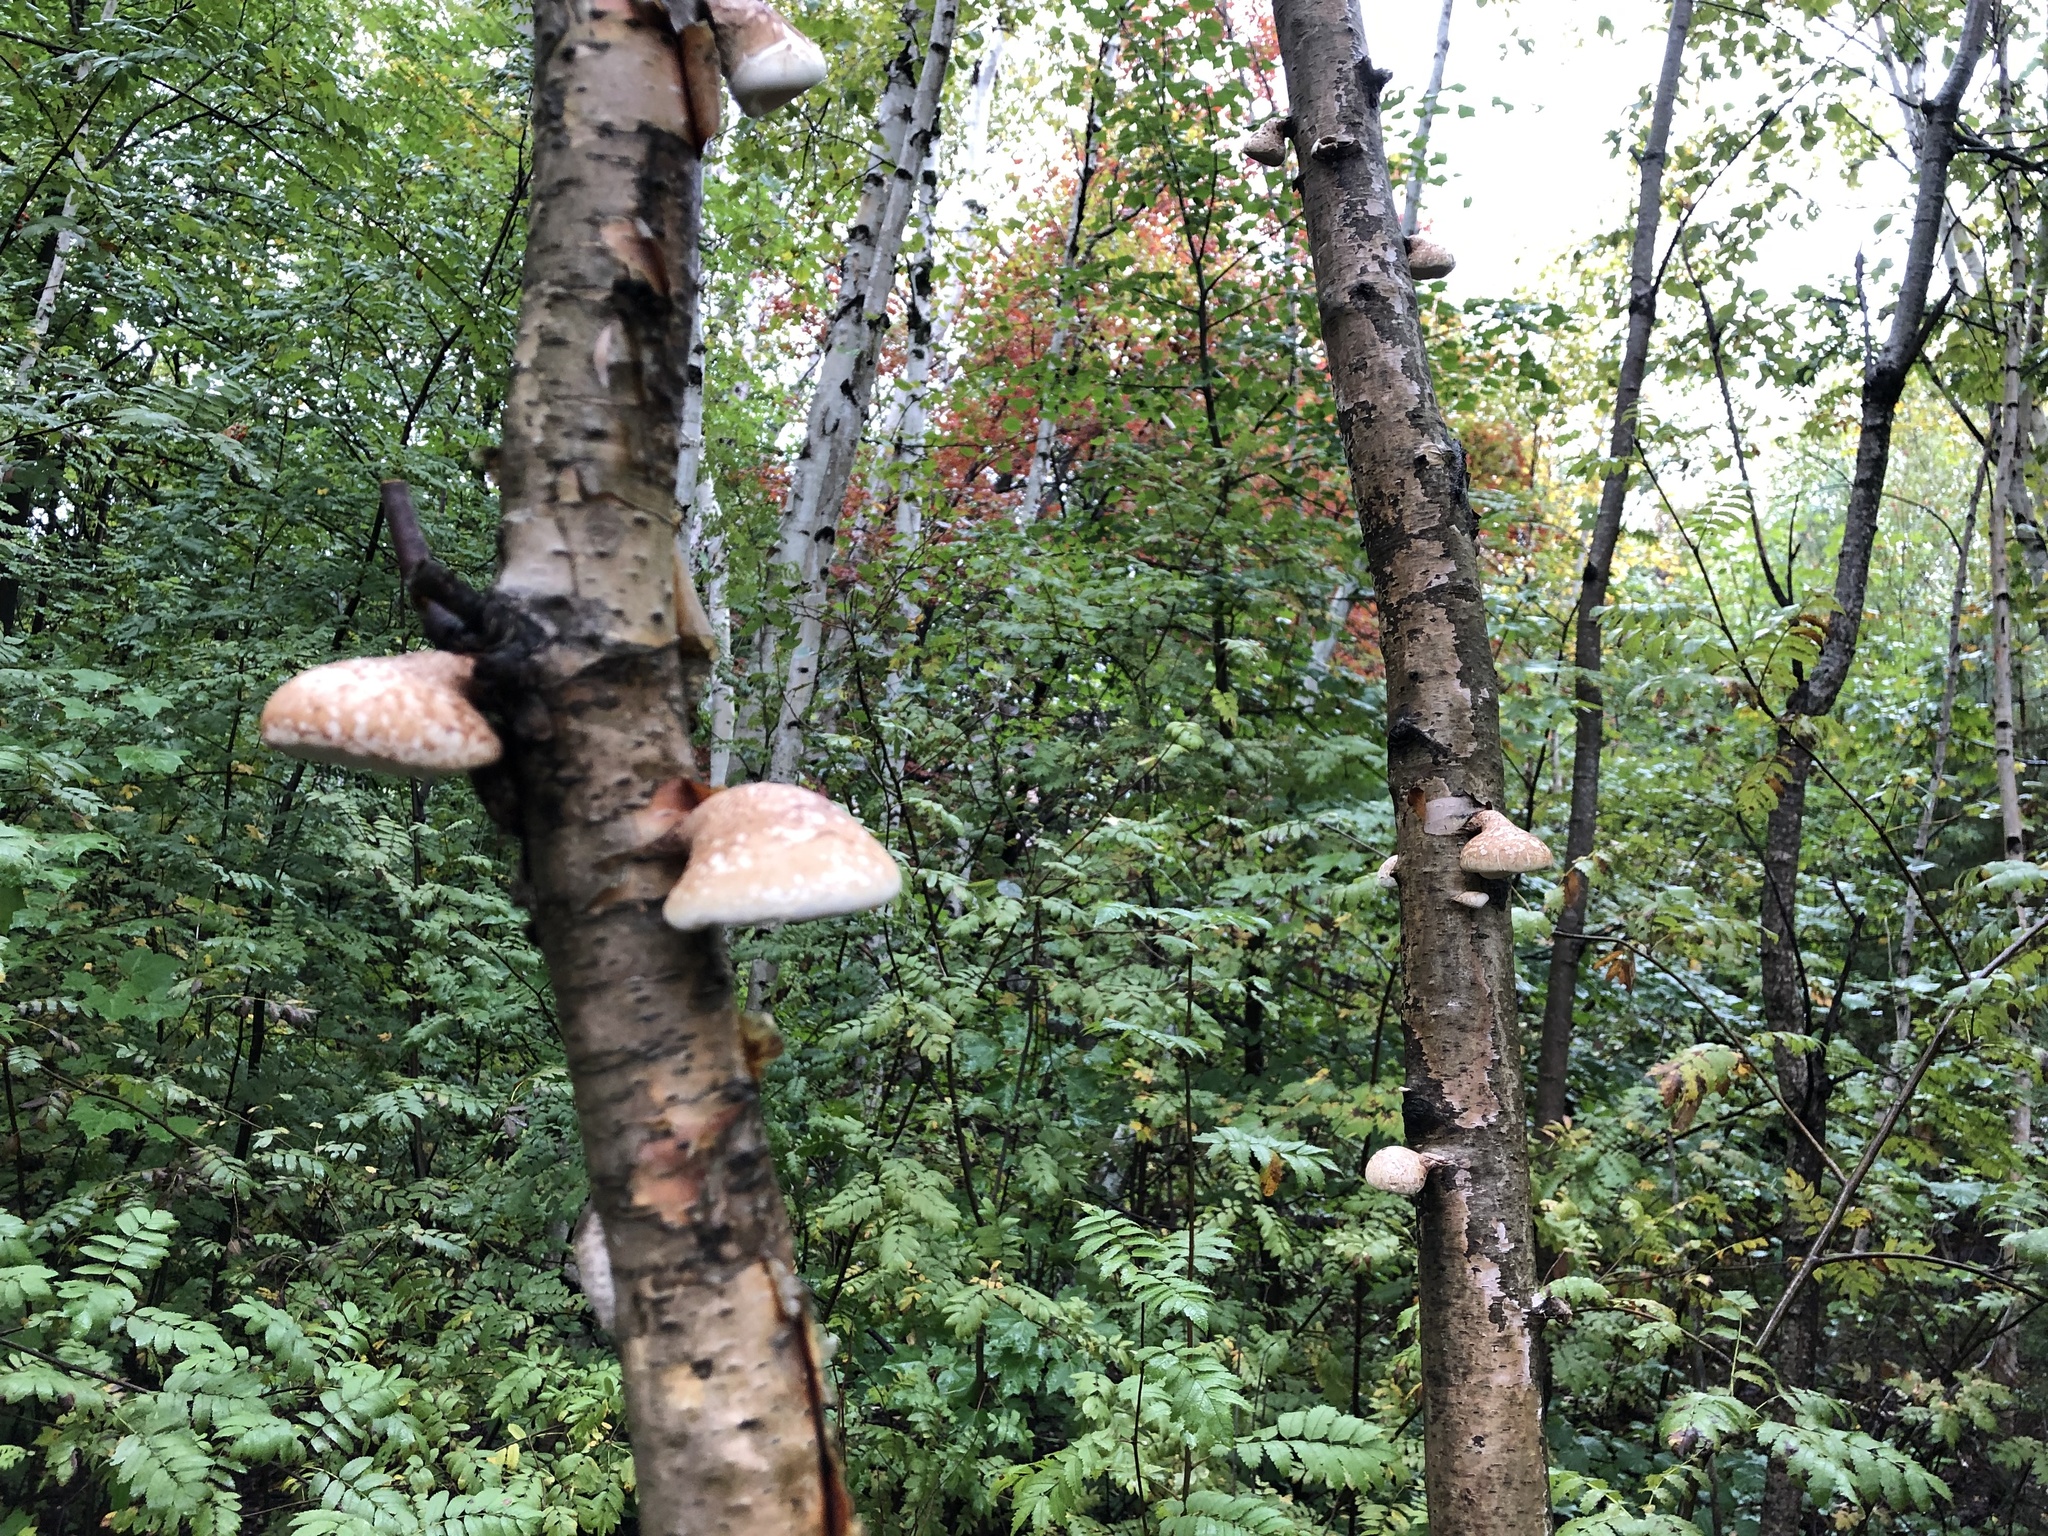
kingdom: Fungi
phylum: Basidiomycota
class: Agaricomycetes
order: Polyporales
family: Fomitopsidaceae
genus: Fomitopsis
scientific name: Fomitopsis betulina
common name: Birch polypore
